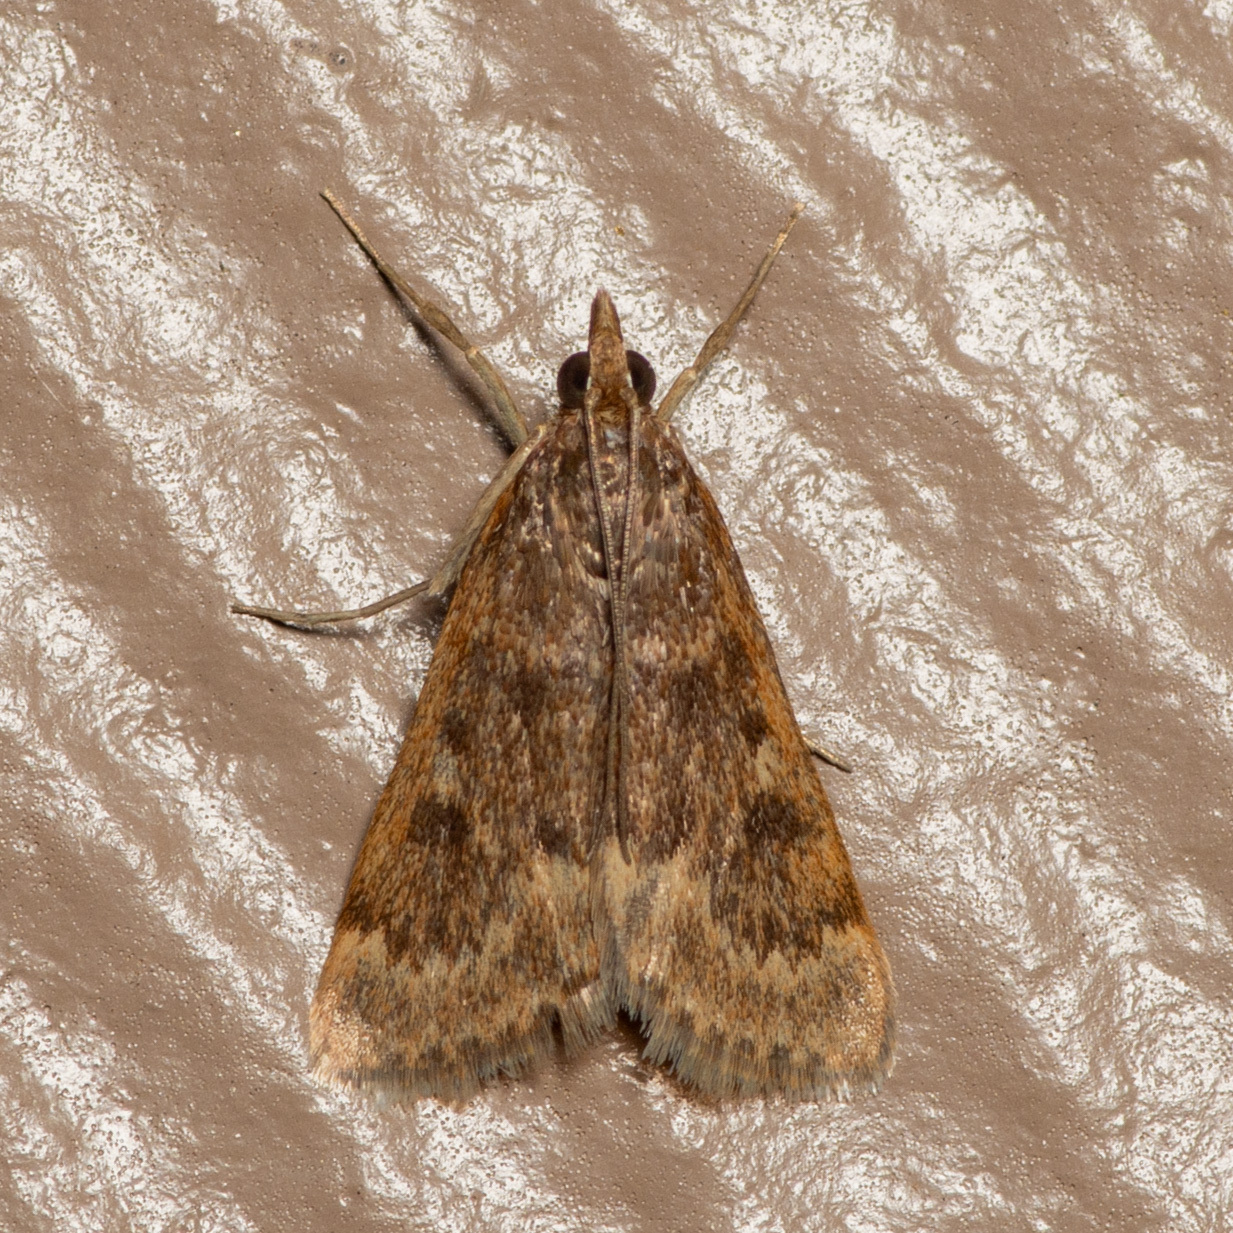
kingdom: Animalia
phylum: Arthropoda
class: Insecta
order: Lepidoptera
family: Crambidae
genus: Achyra
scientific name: Achyra rantalis
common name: Garden webworm
